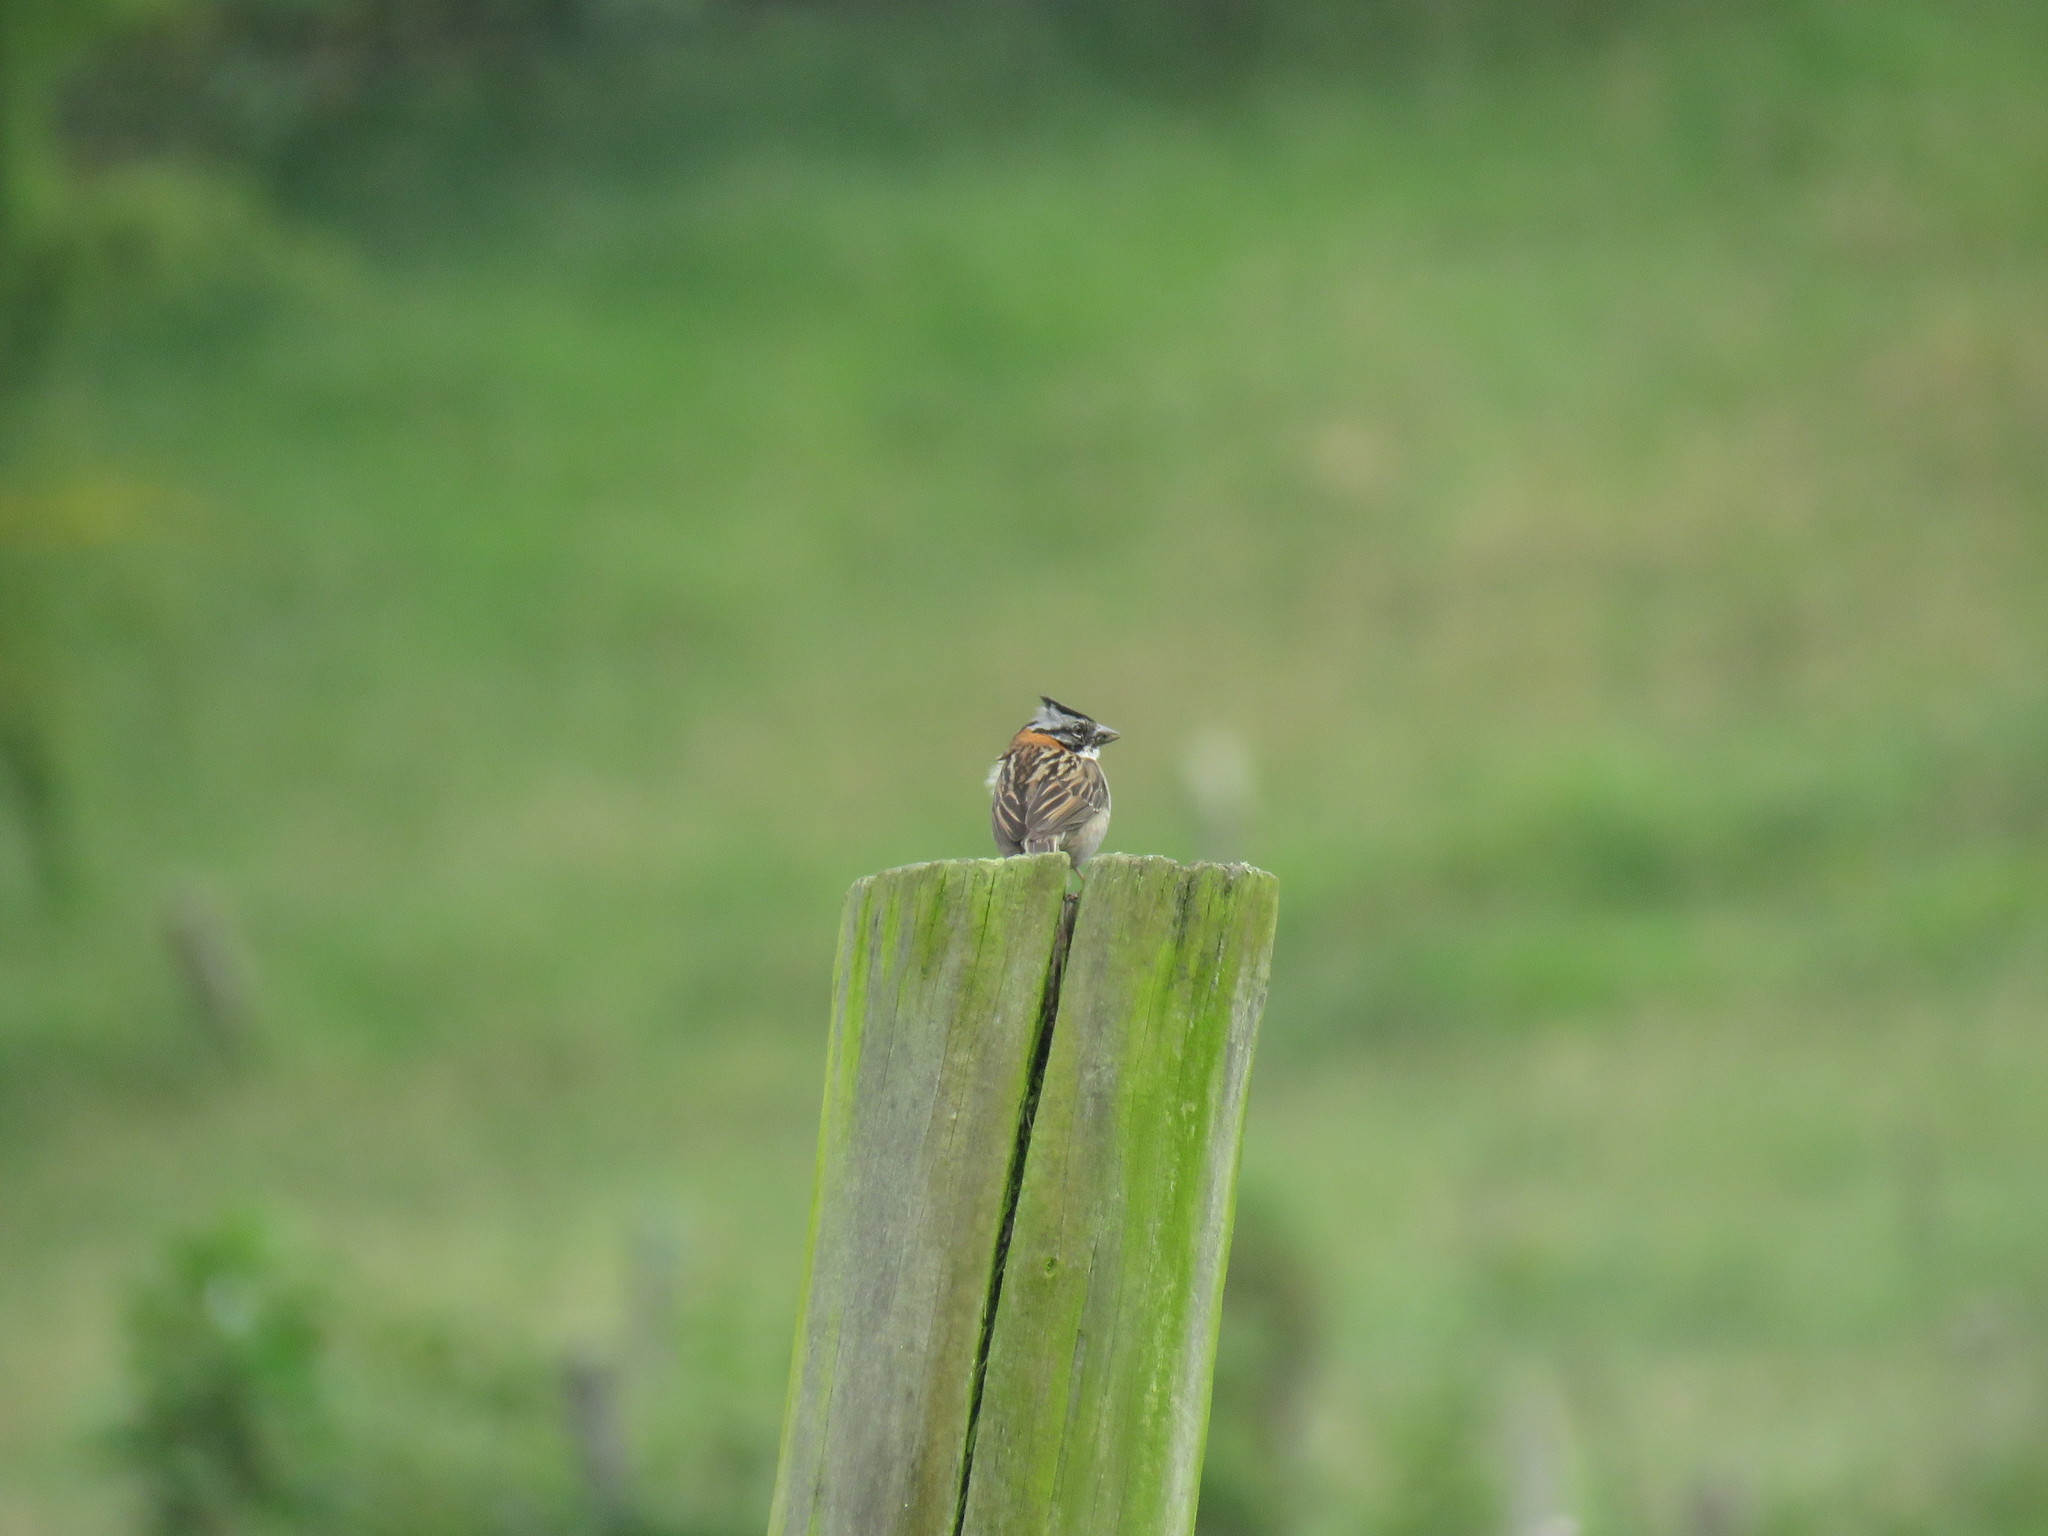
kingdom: Animalia
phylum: Chordata
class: Aves
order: Passeriformes
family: Passerellidae
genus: Zonotrichia
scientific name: Zonotrichia capensis
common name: Rufous-collared sparrow
